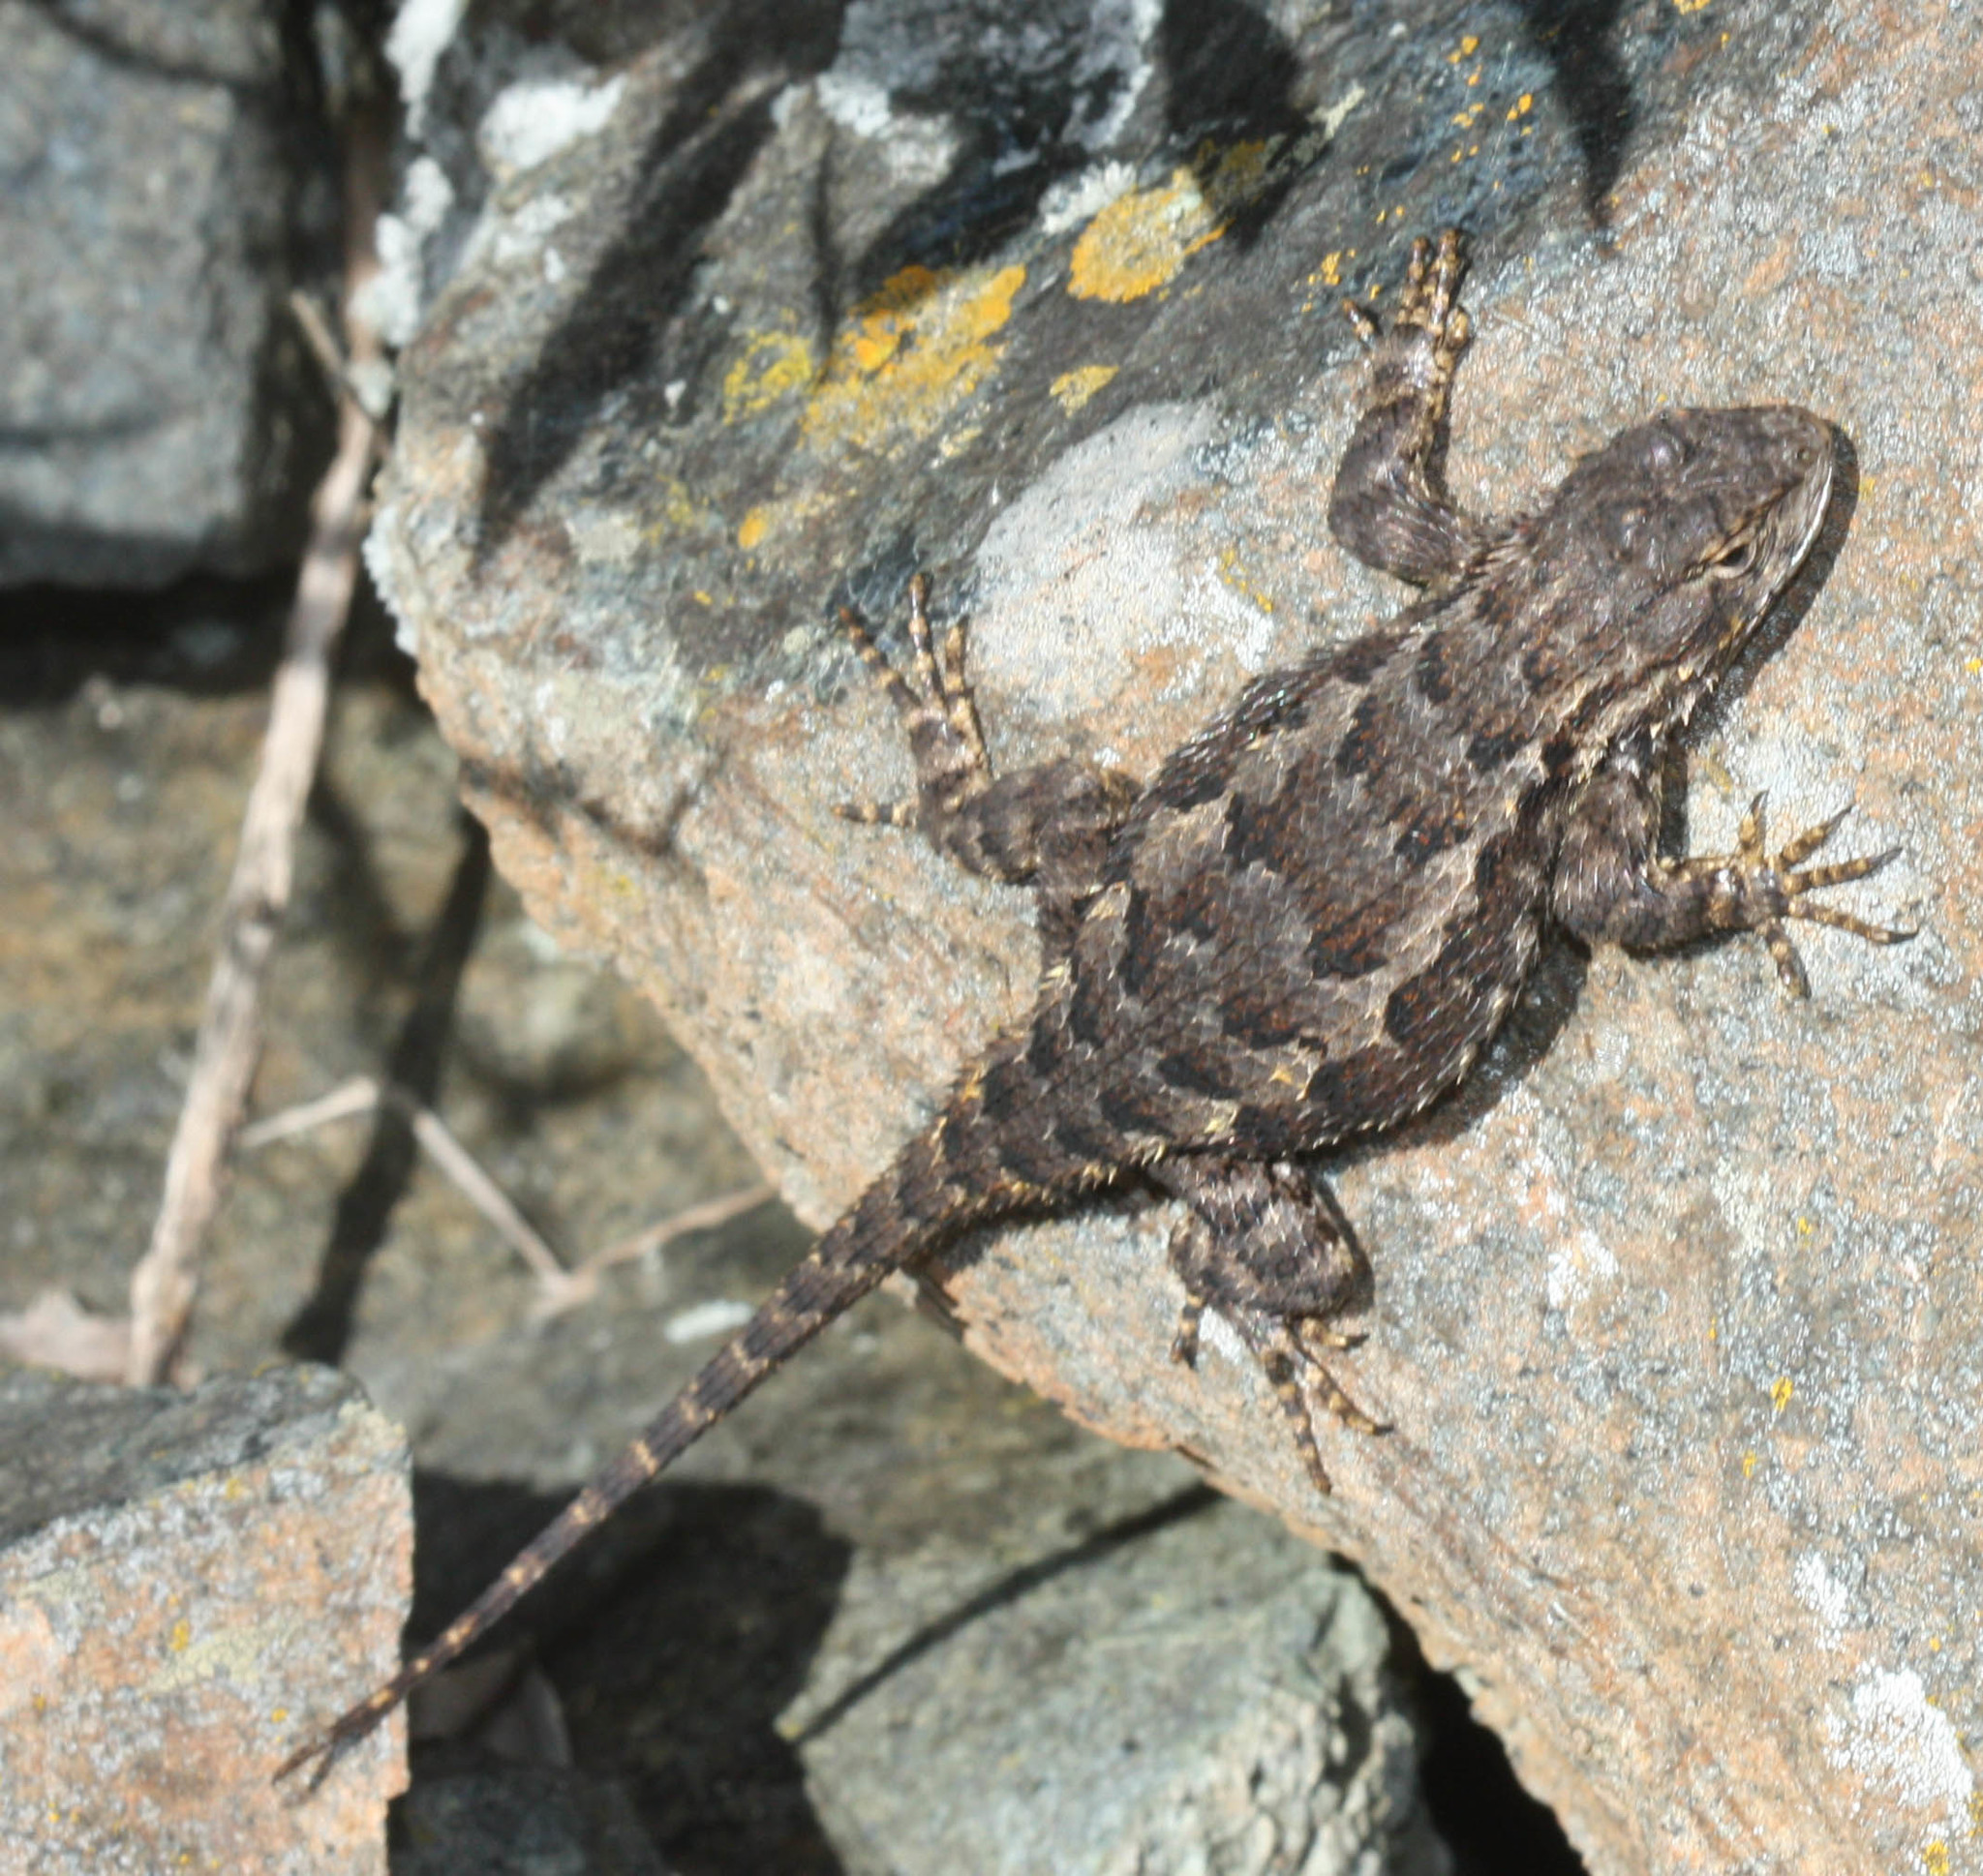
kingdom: Animalia
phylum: Chordata
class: Squamata
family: Phrynosomatidae
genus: Sceloporus
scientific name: Sceloporus occidentalis
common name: Western fence lizard
